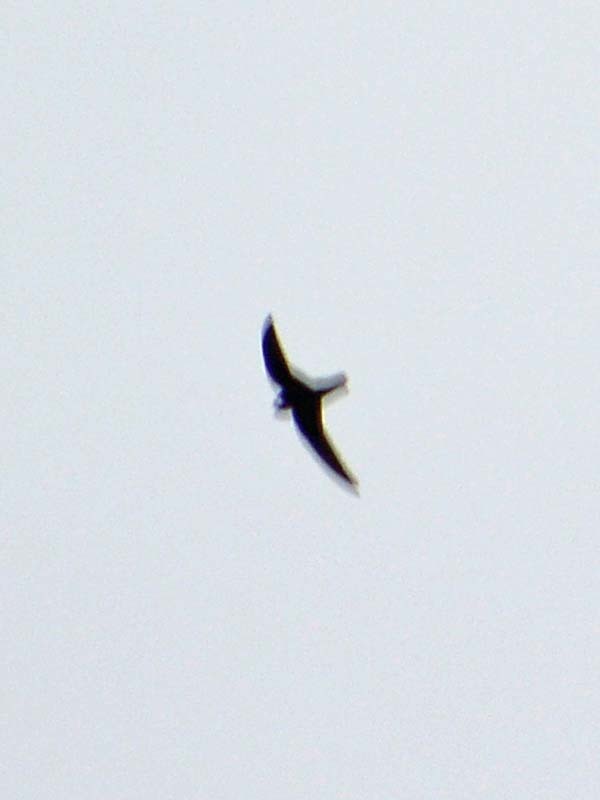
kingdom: Animalia
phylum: Chordata
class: Aves
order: Apodiformes
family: Apodidae
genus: Cypseloides
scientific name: Cypseloides niger
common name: Black swift
